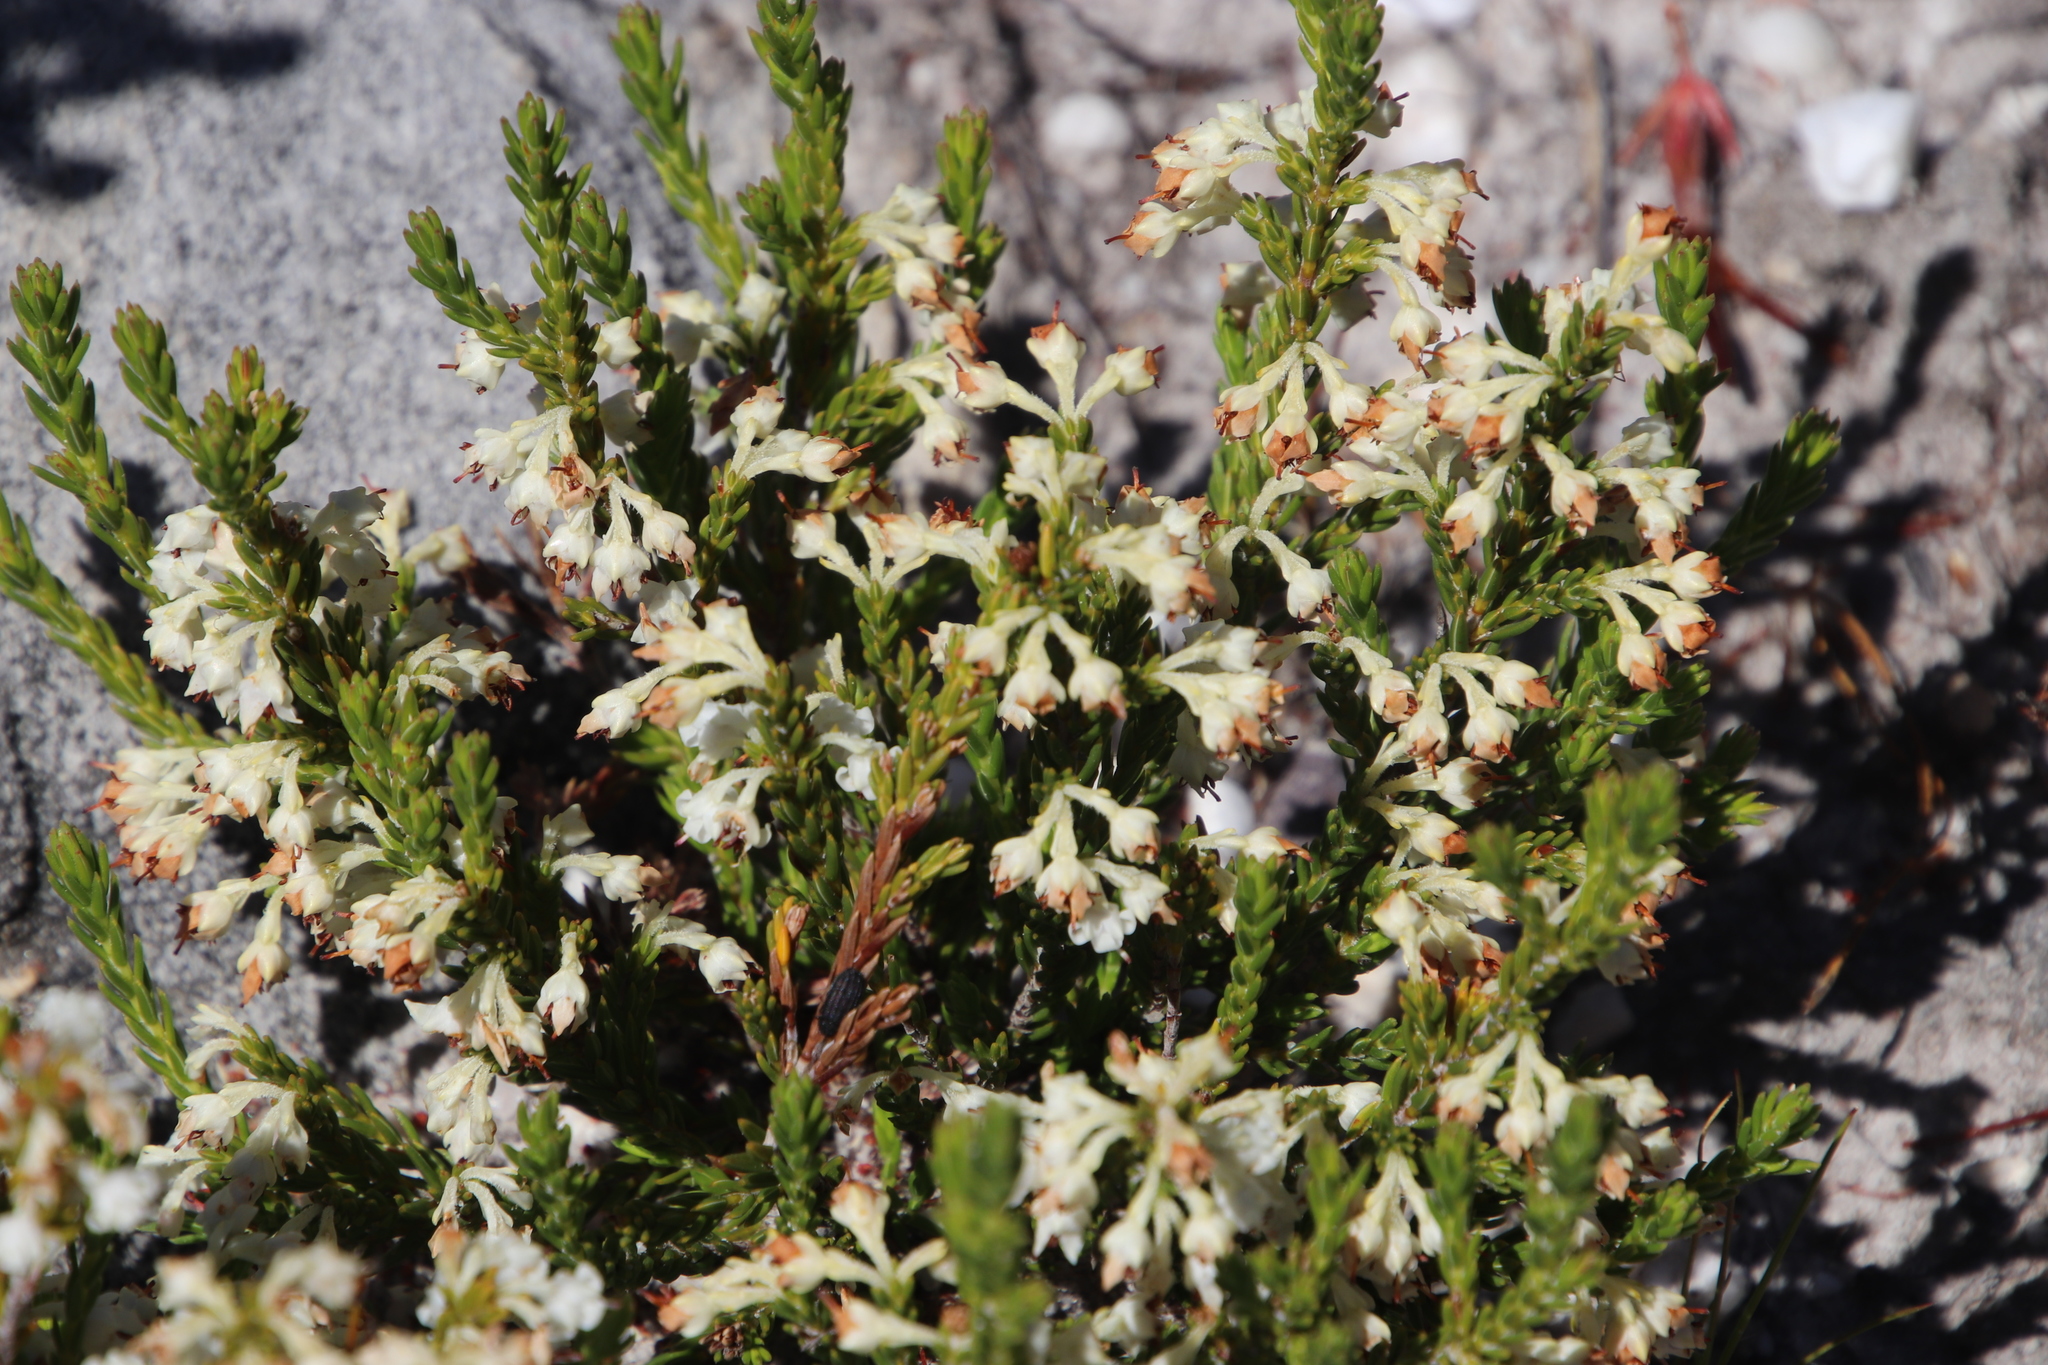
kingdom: Plantae
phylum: Tracheophyta
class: Magnoliopsida
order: Ericales
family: Ericaceae
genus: Erica
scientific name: Erica calycina
